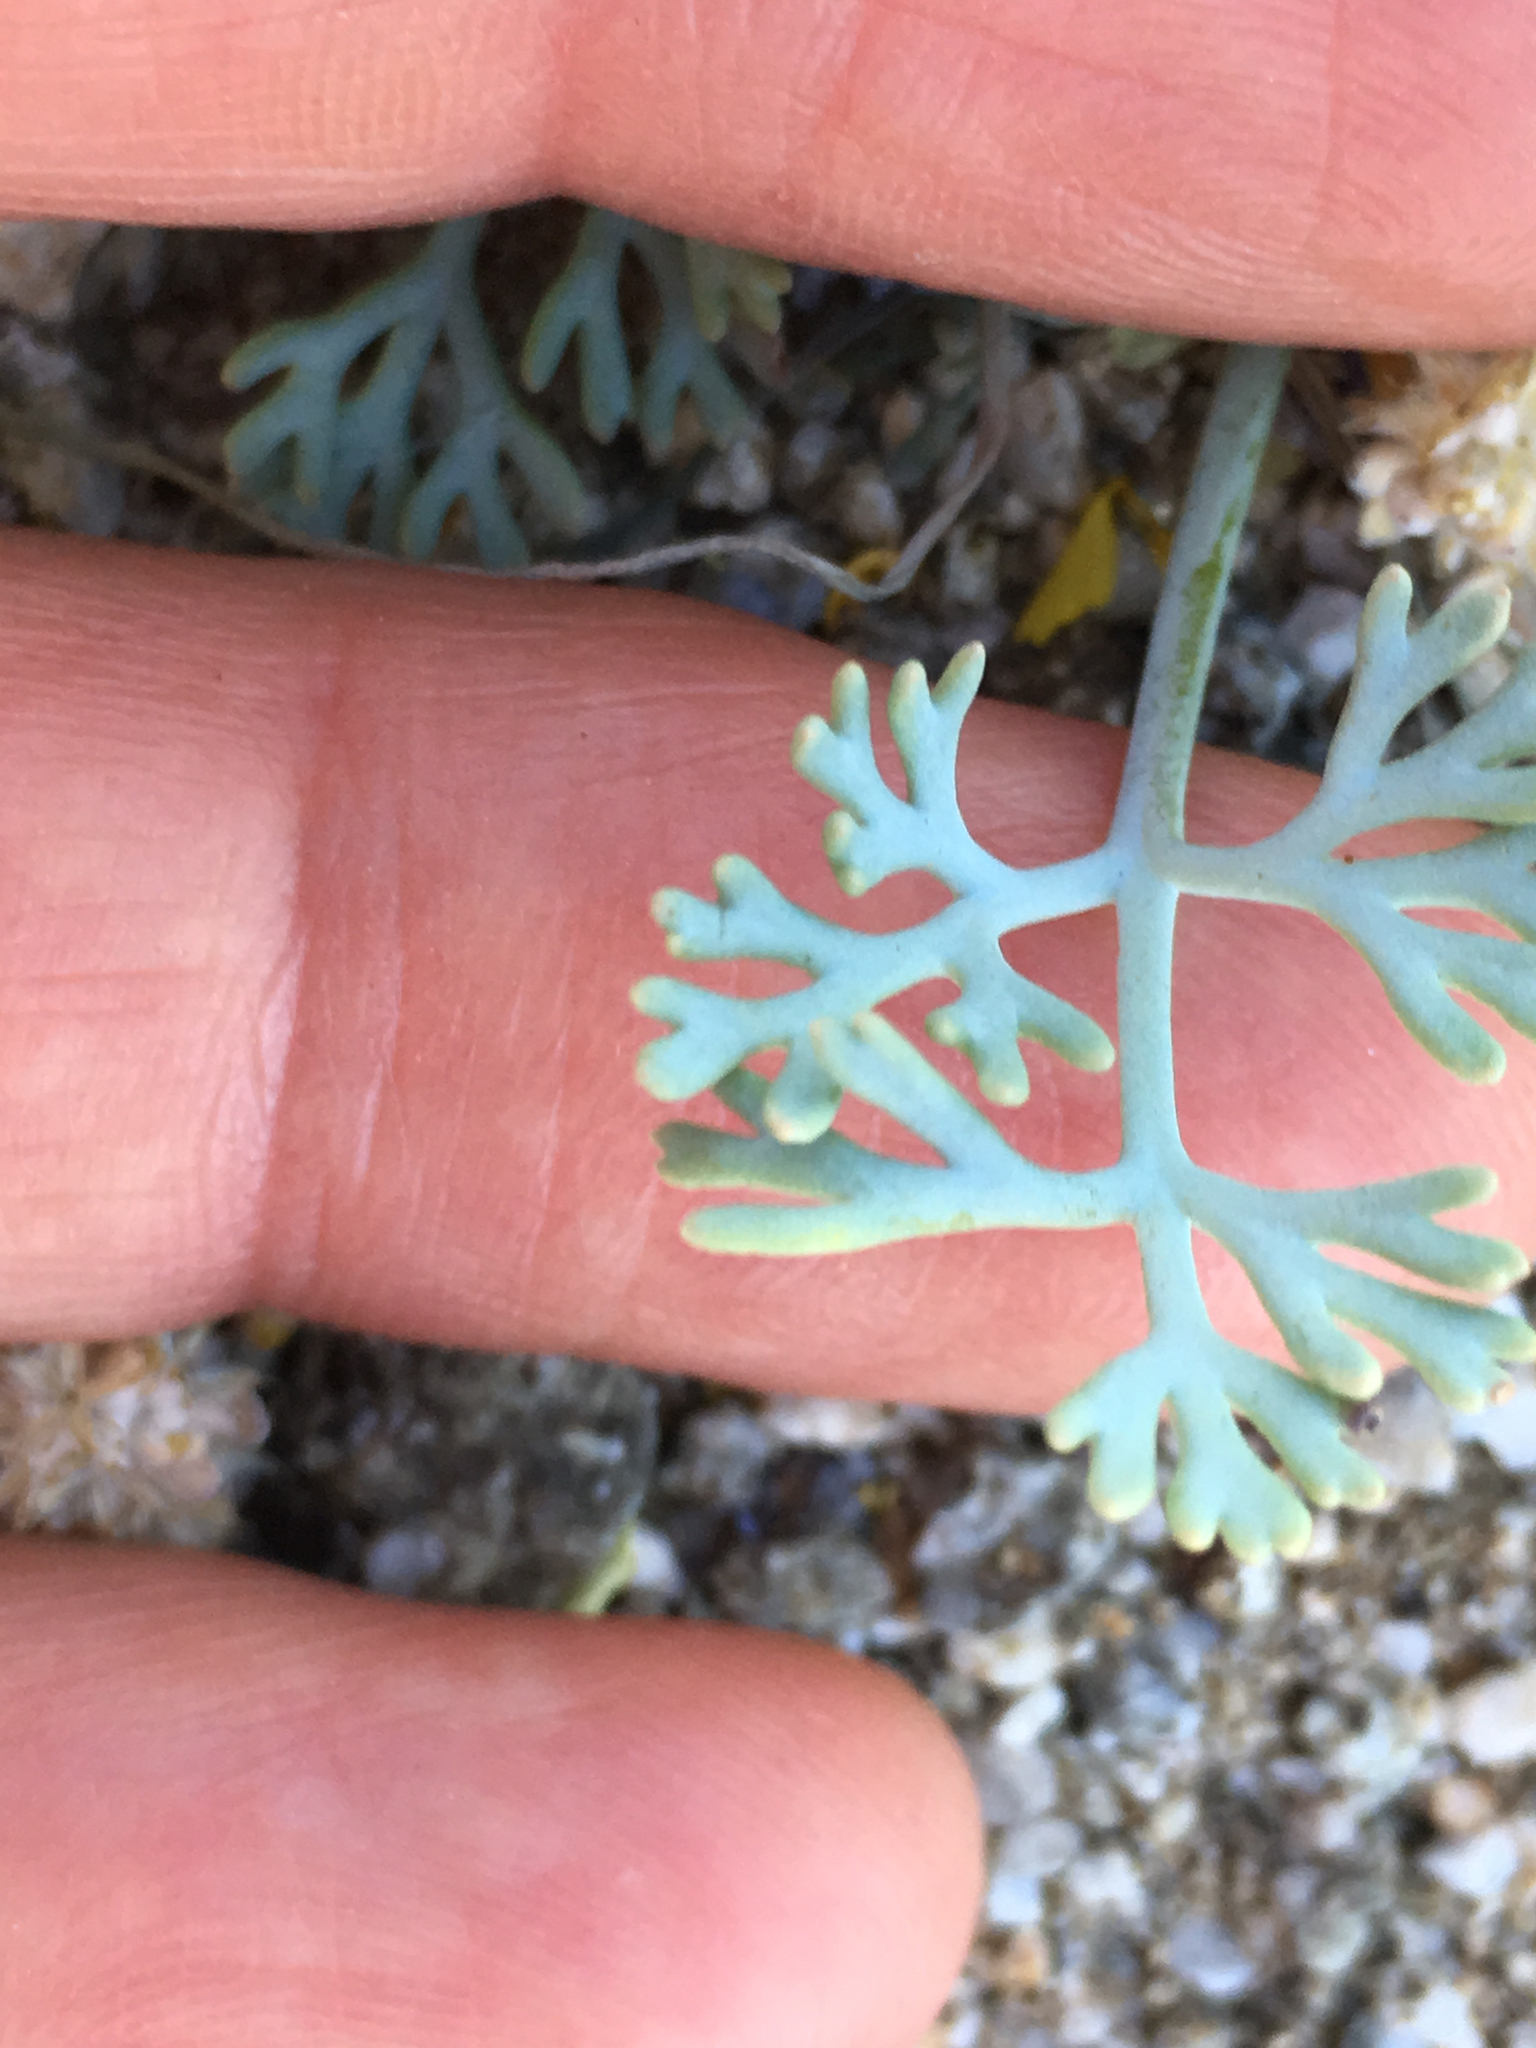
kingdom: Plantae
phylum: Tracheophyta
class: Magnoliopsida
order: Ranunculales
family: Papaveraceae
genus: Eschscholzia
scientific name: Eschscholzia minutiflora
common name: Small-flower california-poppy
